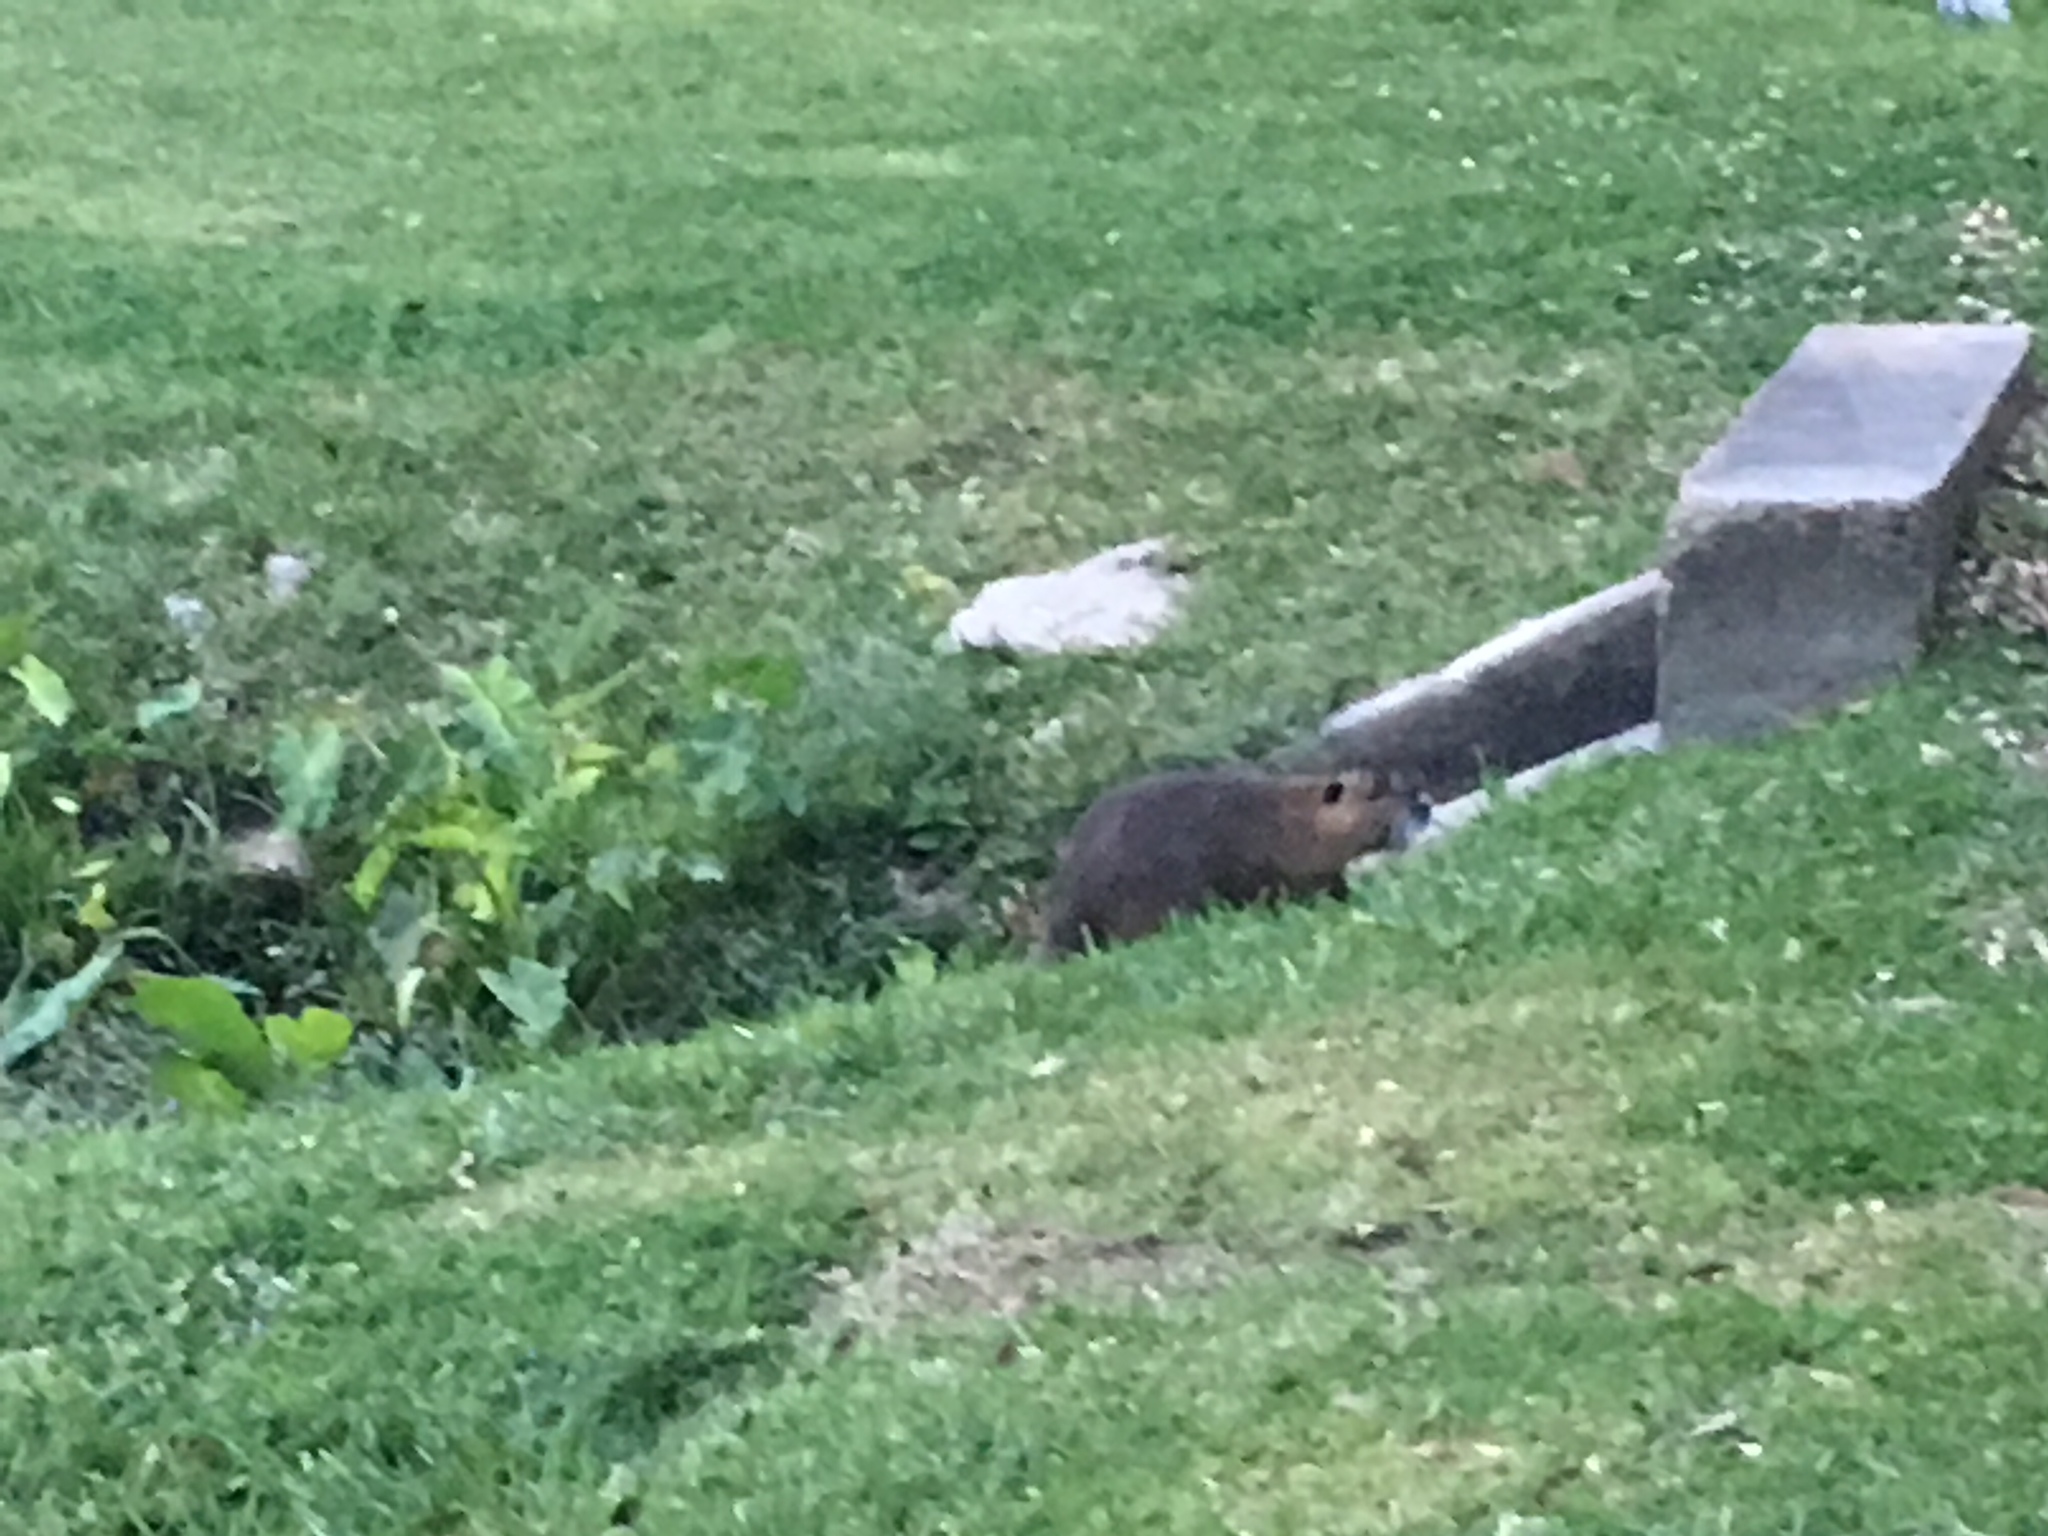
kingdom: Animalia
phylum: Chordata
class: Mammalia
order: Rodentia
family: Myocastoridae
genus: Myocastor
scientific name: Myocastor coypus
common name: Coypu
